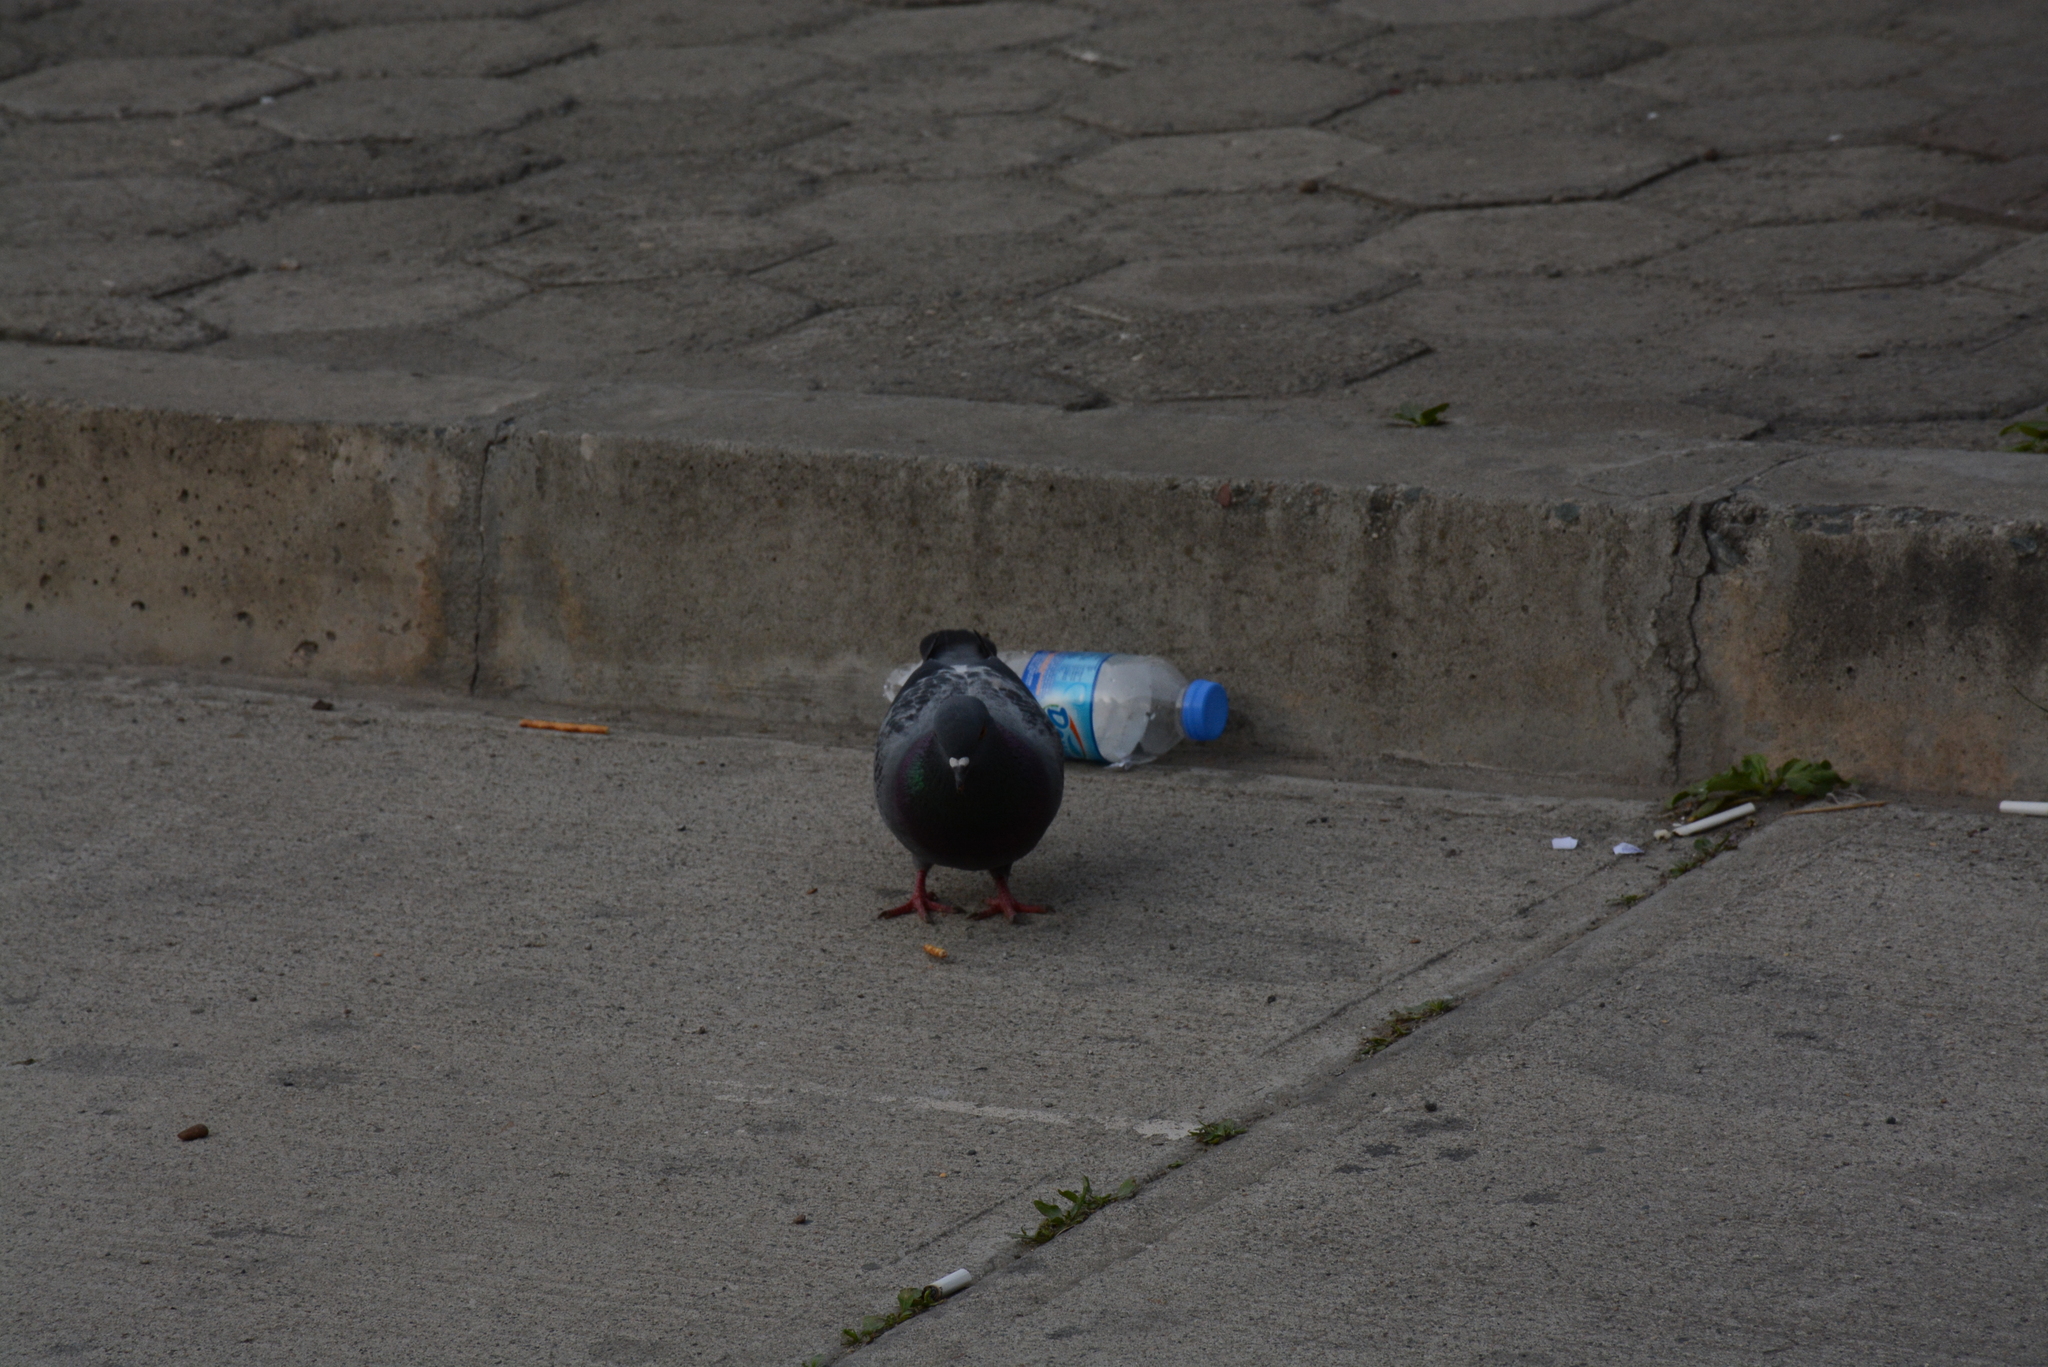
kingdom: Animalia
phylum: Chordata
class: Aves
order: Columbiformes
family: Columbidae
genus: Columba
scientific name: Columba livia
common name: Rock pigeon
